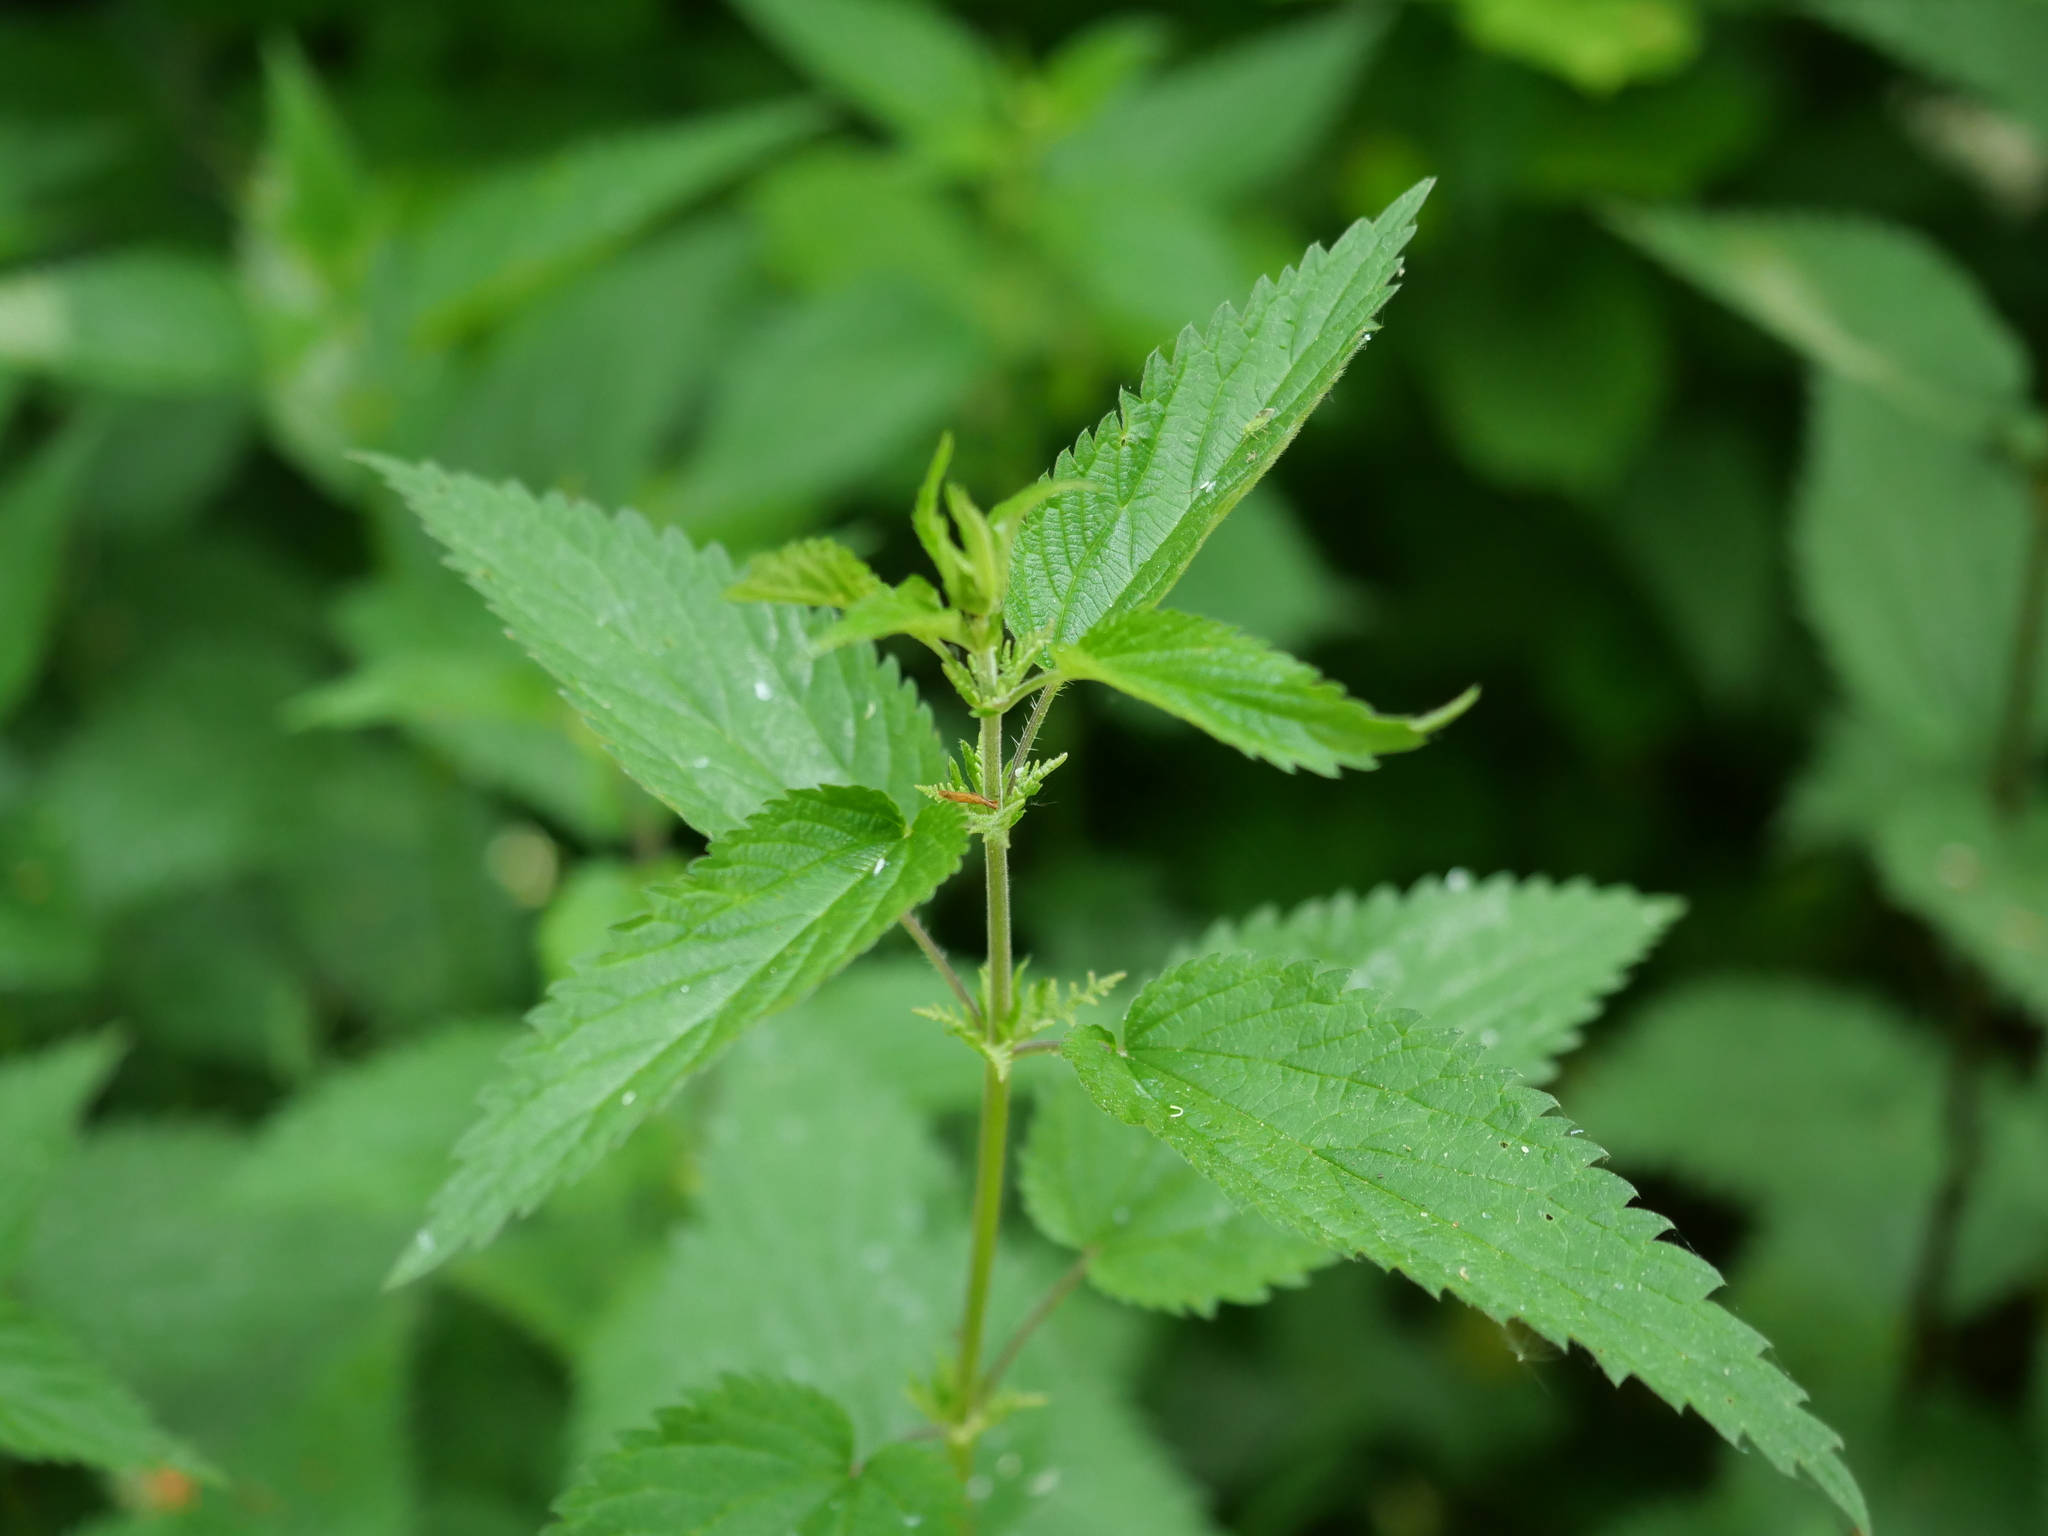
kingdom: Plantae
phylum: Tracheophyta
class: Magnoliopsida
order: Rosales
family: Urticaceae
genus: Urtica
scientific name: Urtica dioica
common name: Common nettle
